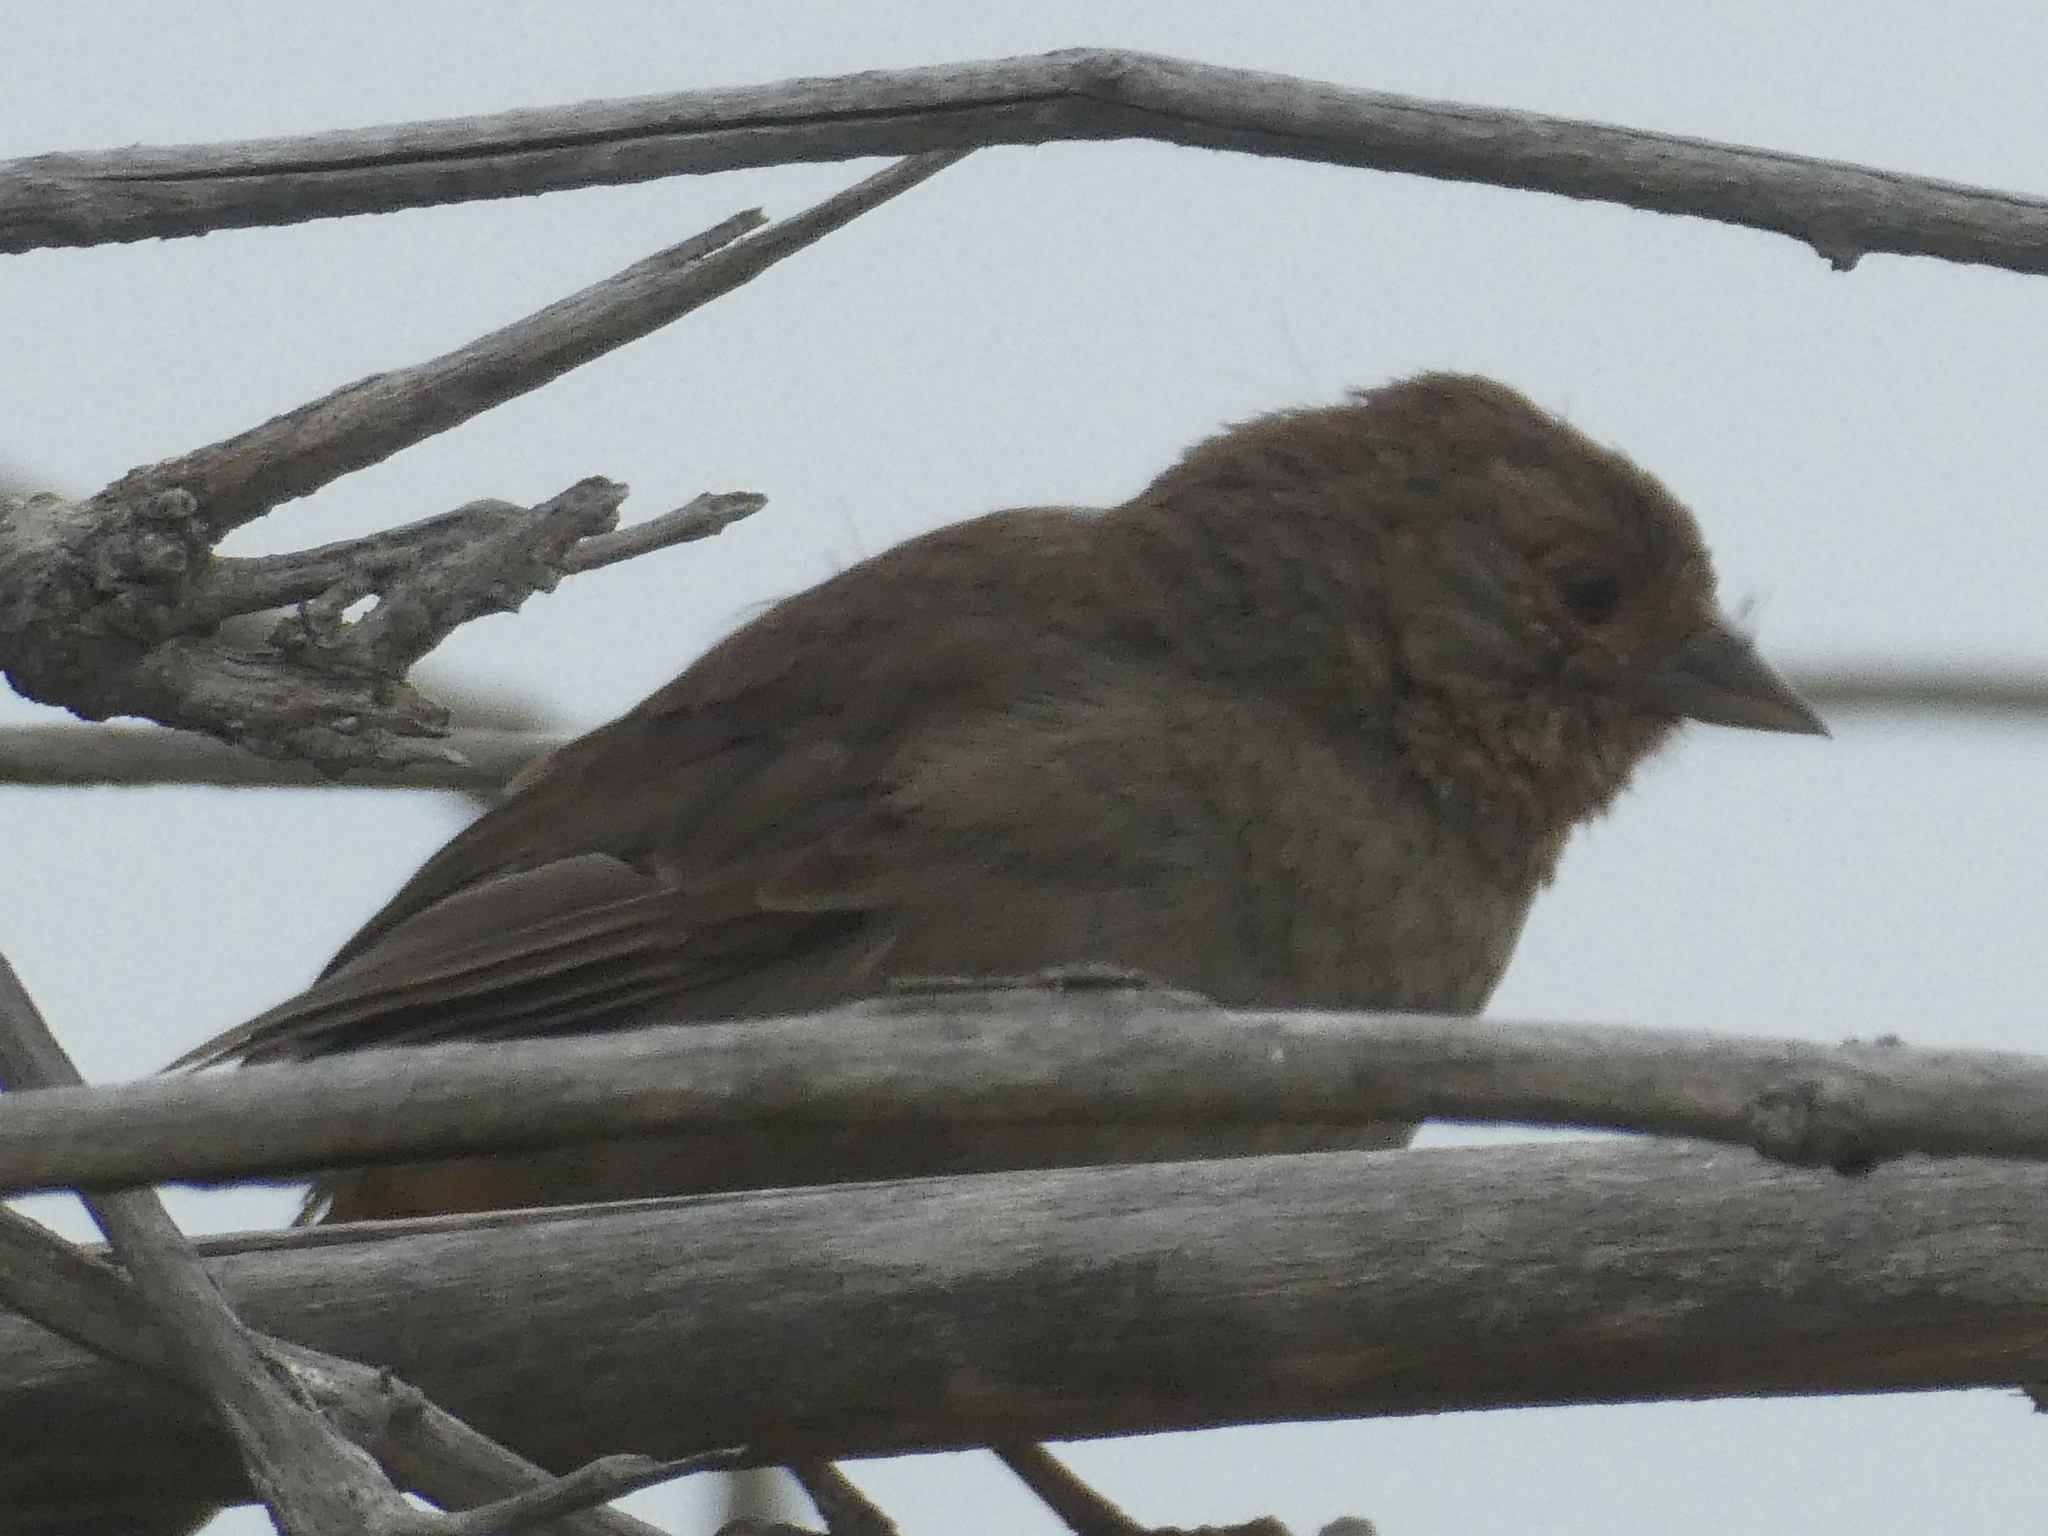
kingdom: Animalia
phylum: Chordata
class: Aves
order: Passeriformes
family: Passerellidae
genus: Melozone
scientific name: Melozone crissalis
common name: California towhee
